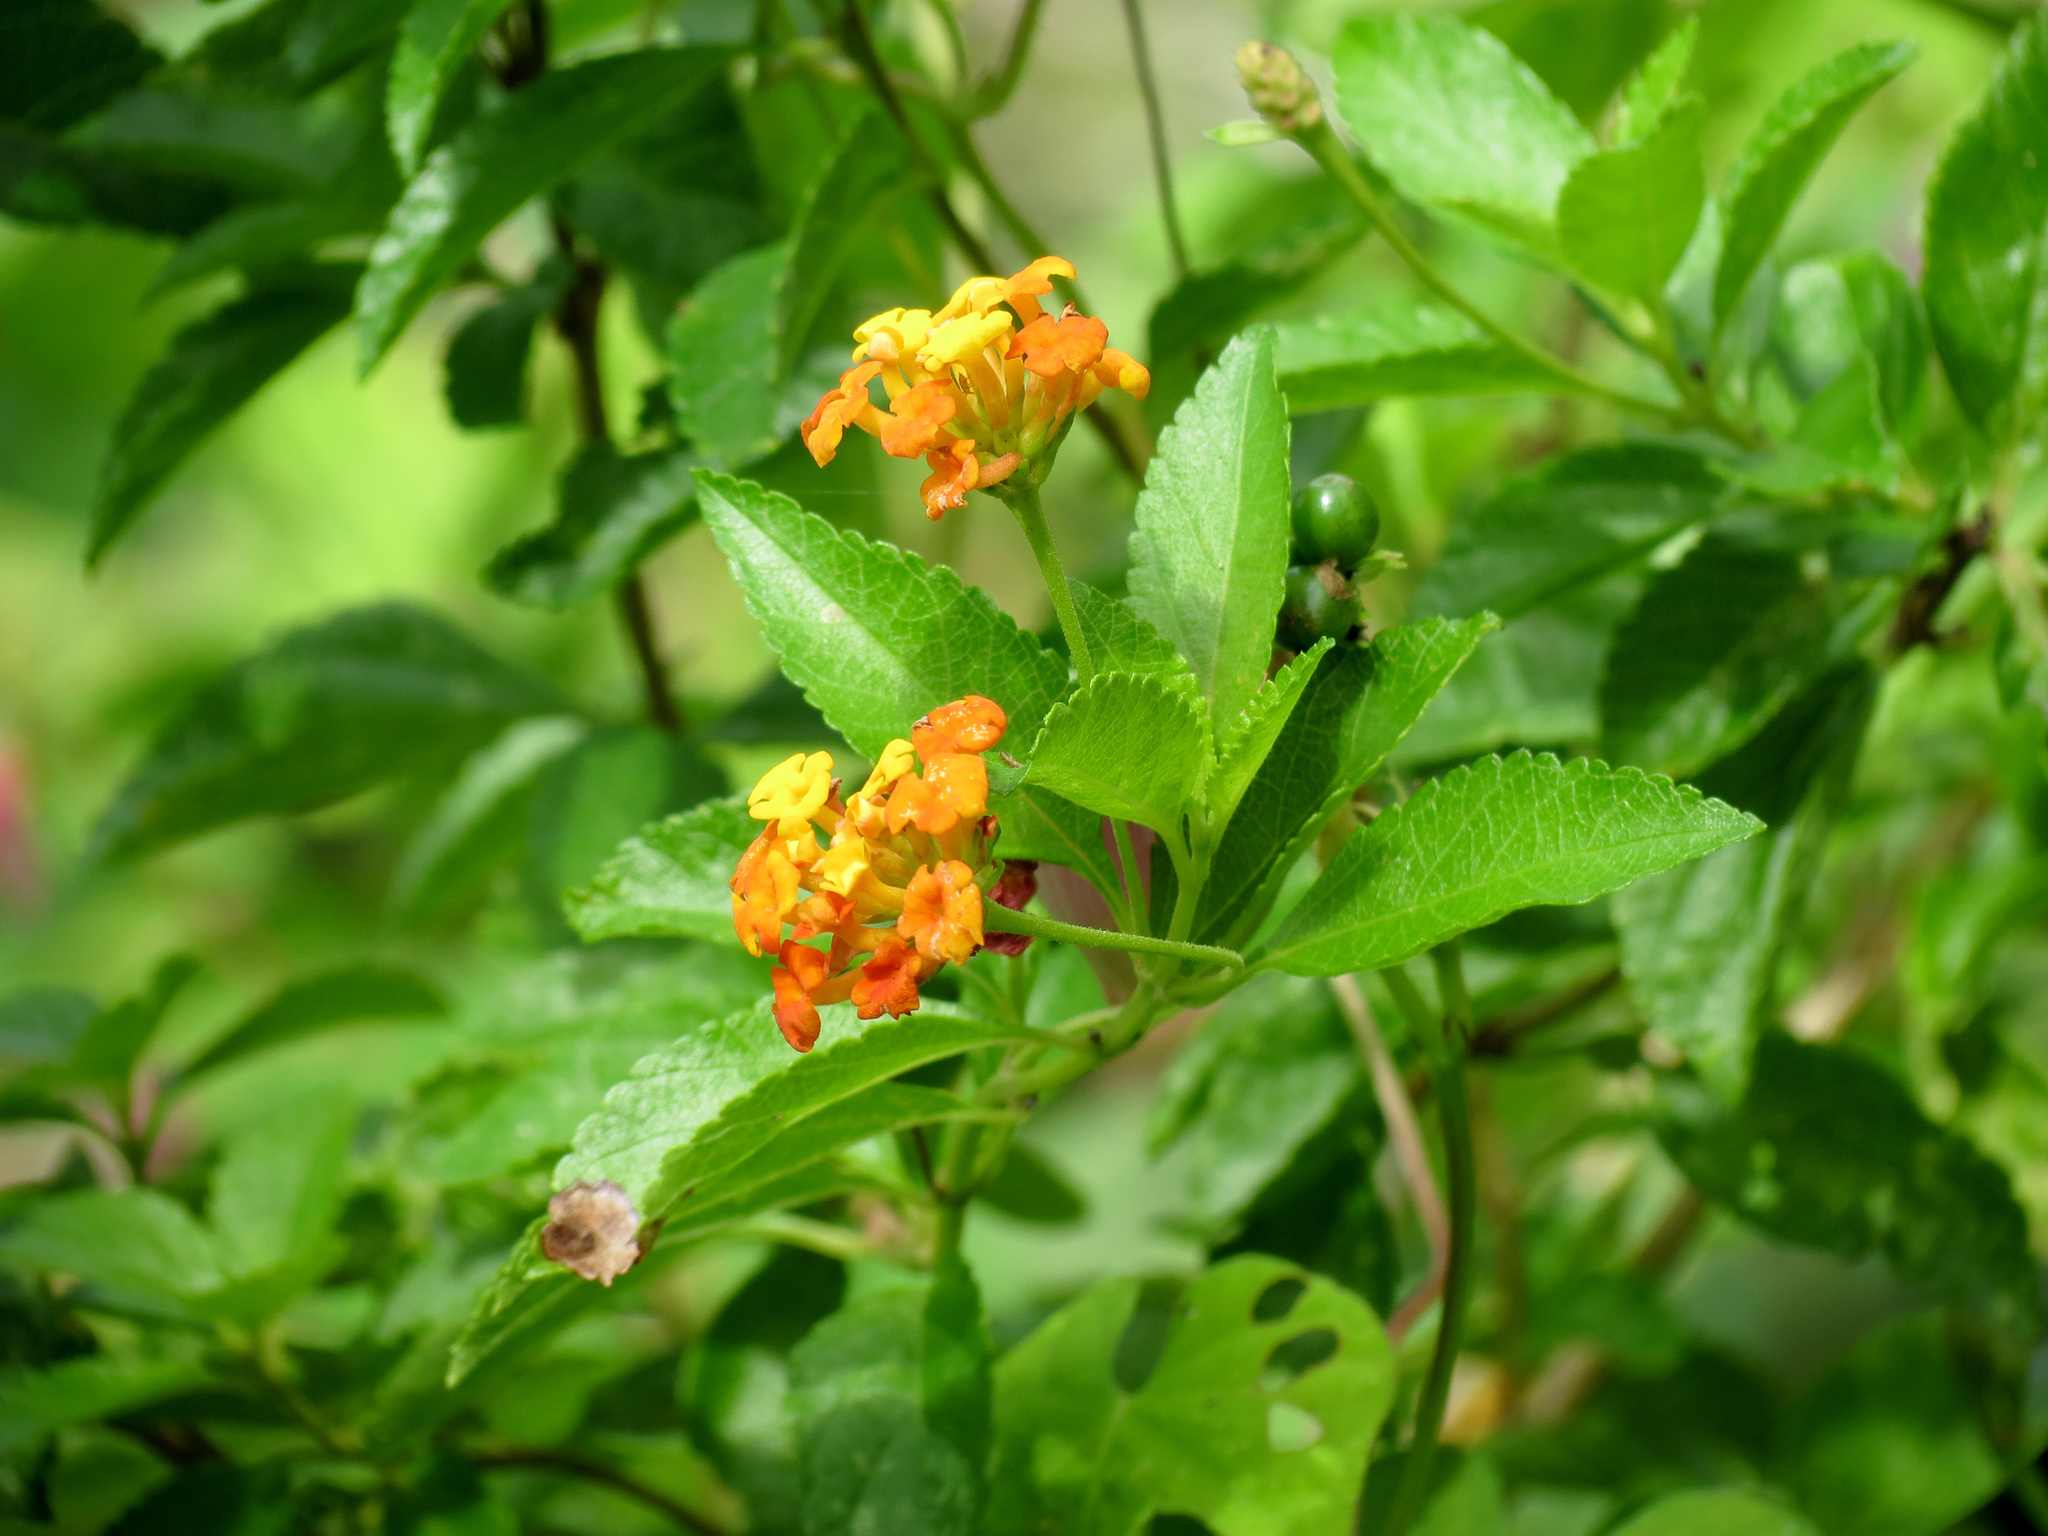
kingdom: Plantae
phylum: Tracheophyta
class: Magnoliopsida
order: Lamiales
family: Verbenaceae
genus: Lantana
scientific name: Lantana camara
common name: Lantana
